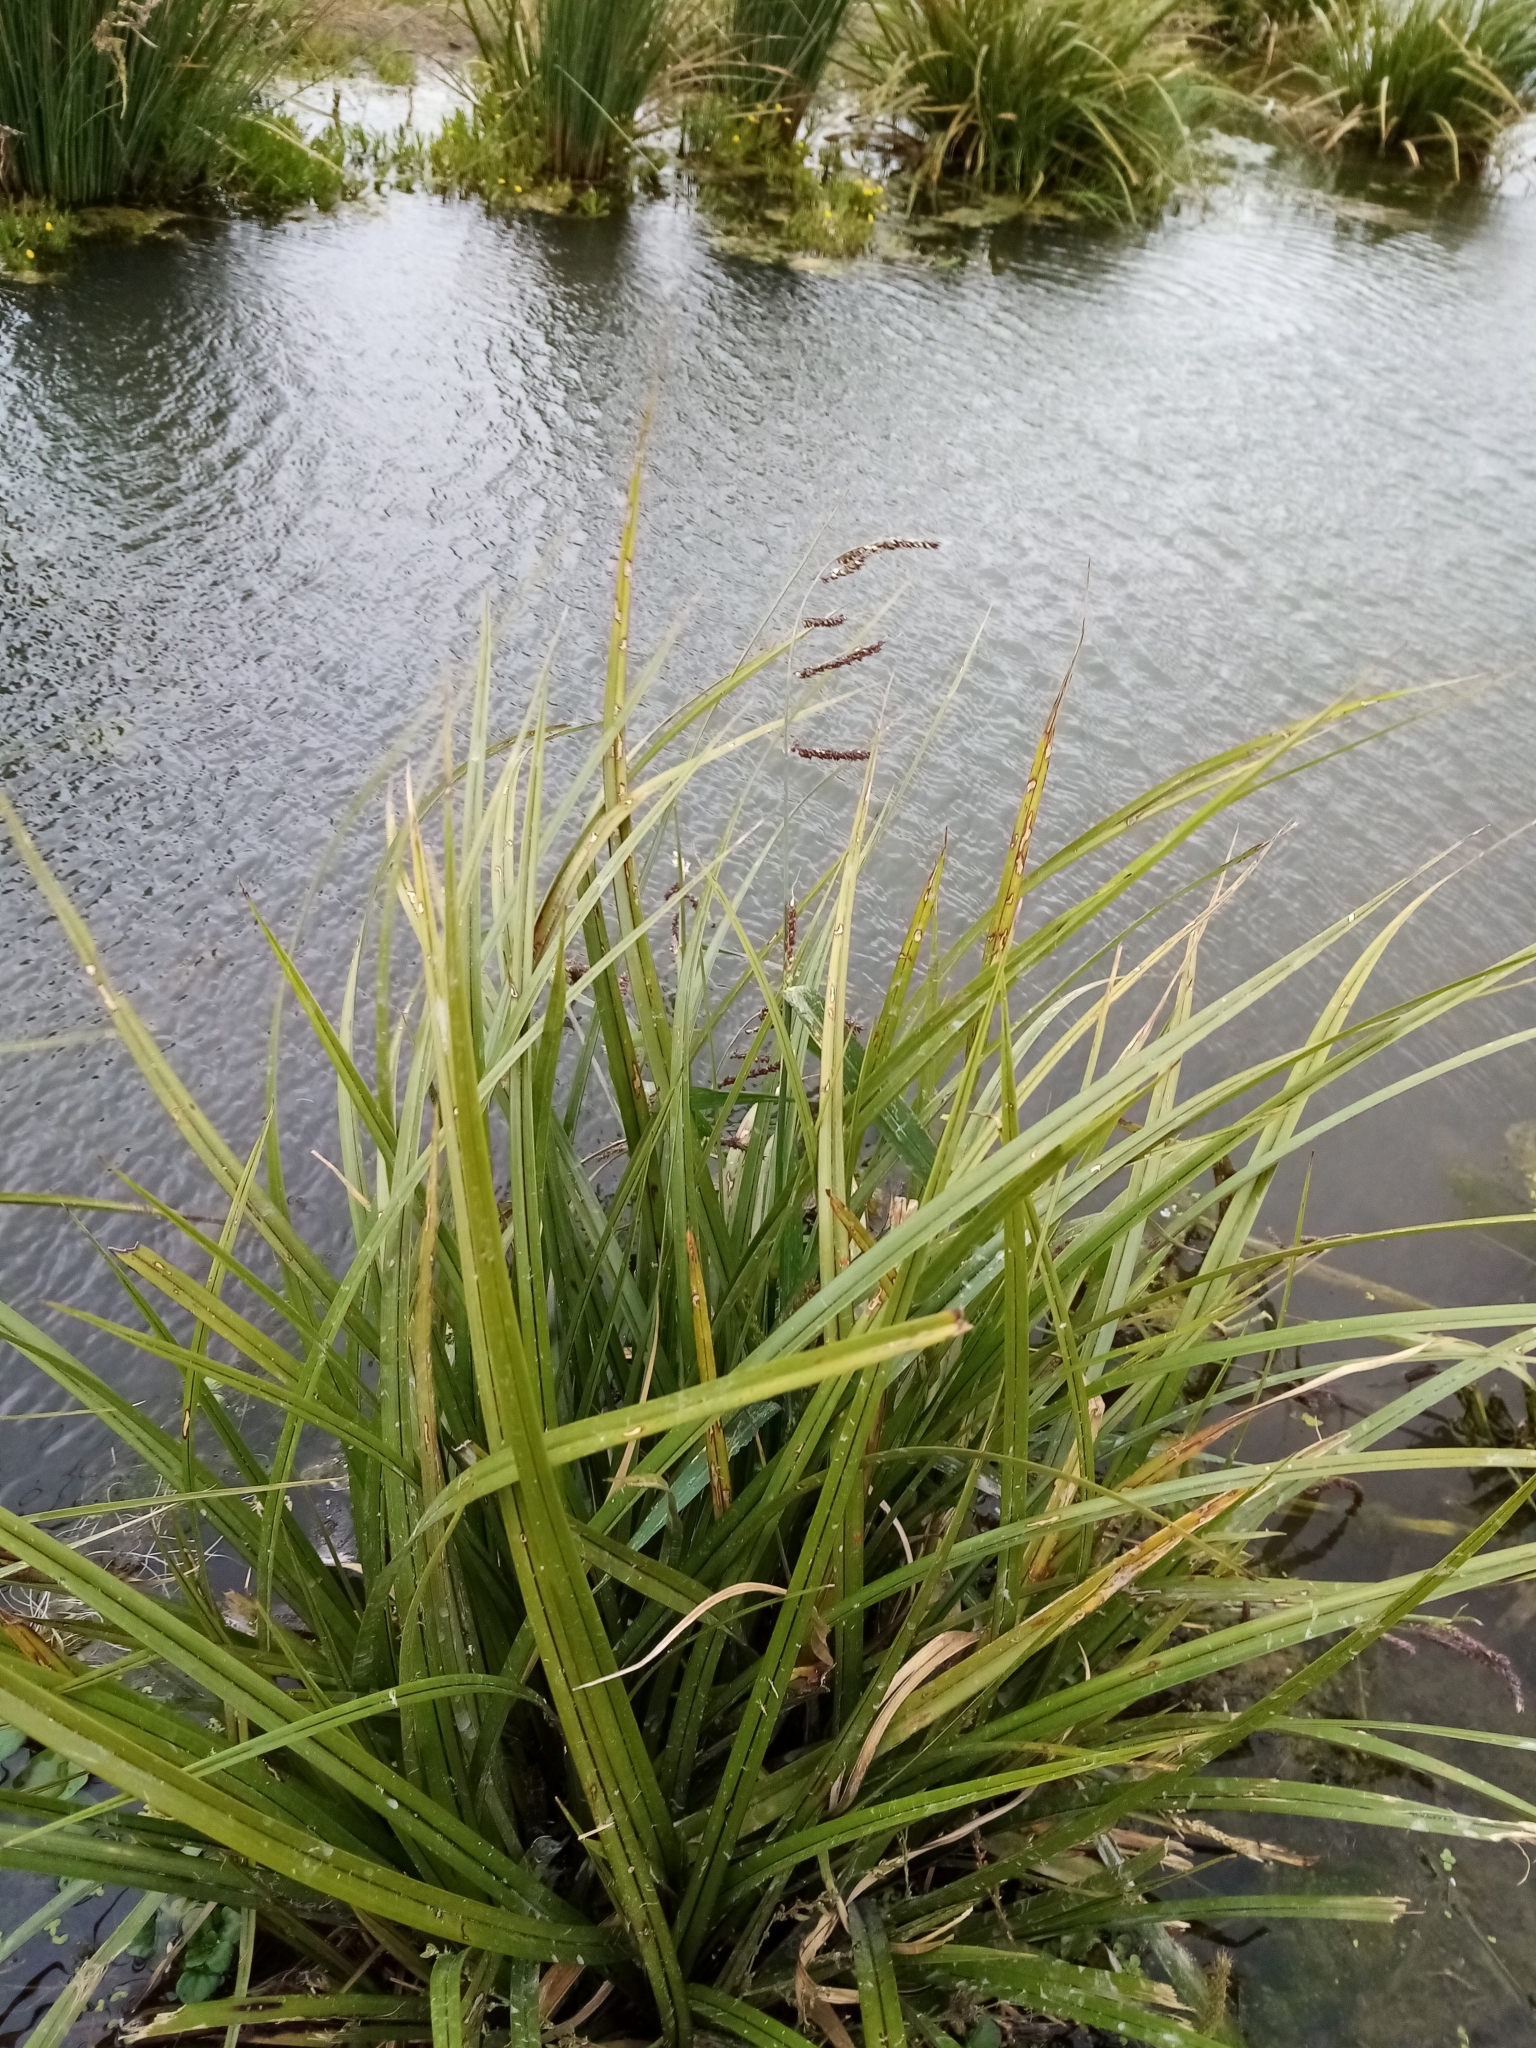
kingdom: Plantae
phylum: Tracheophyta
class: Liliopsida
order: Poales
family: Poaceae
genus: Echinochloa
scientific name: Echinochloa crus-galli
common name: Cockspur
